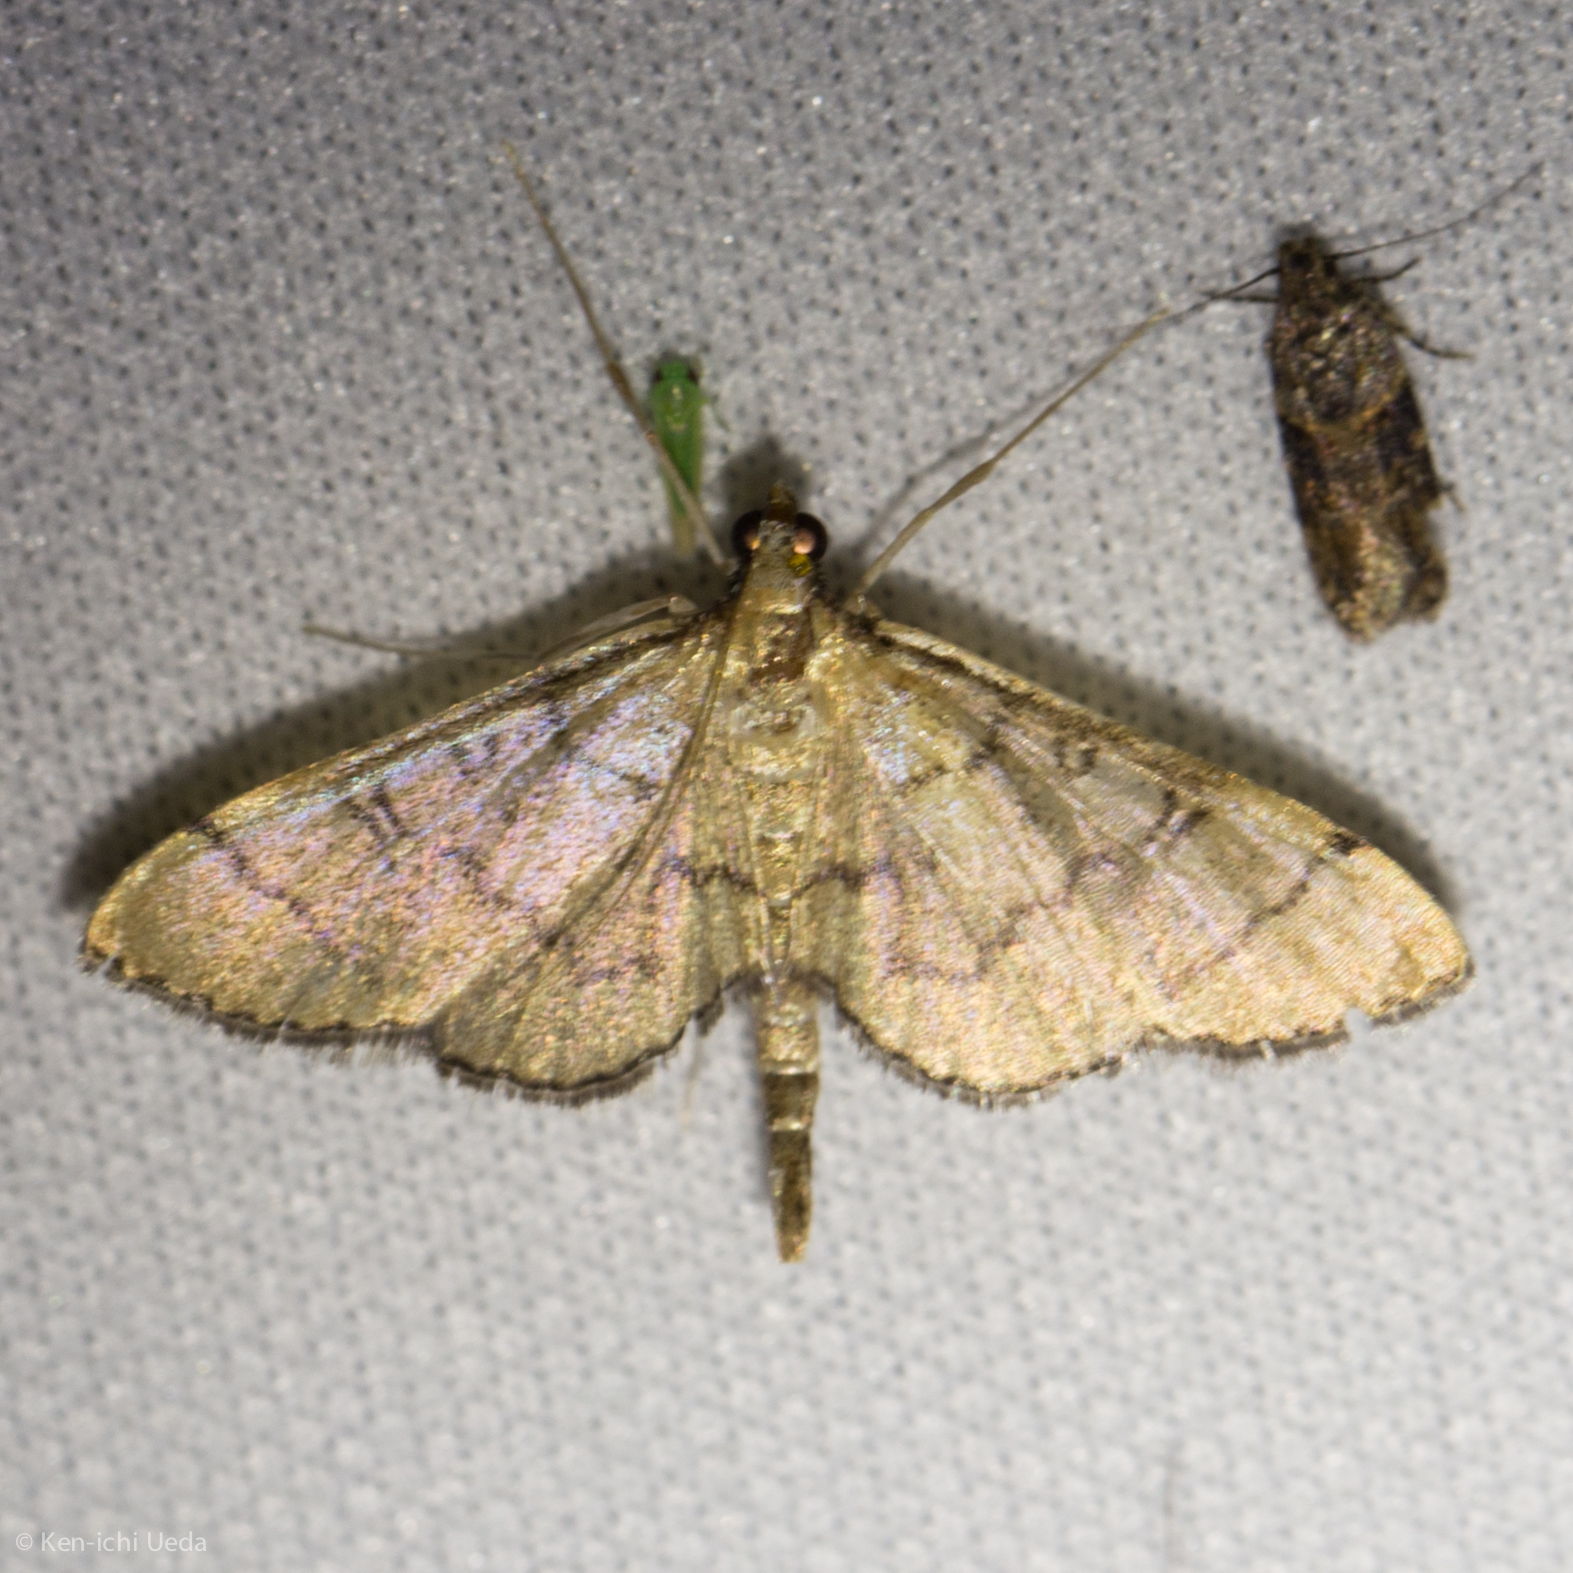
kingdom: Animalia
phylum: Arthropoda
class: Insecta
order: Lepidoptera
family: Crambidae
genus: Lamprosema
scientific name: Lamprosema Blepharomastix ranalis
